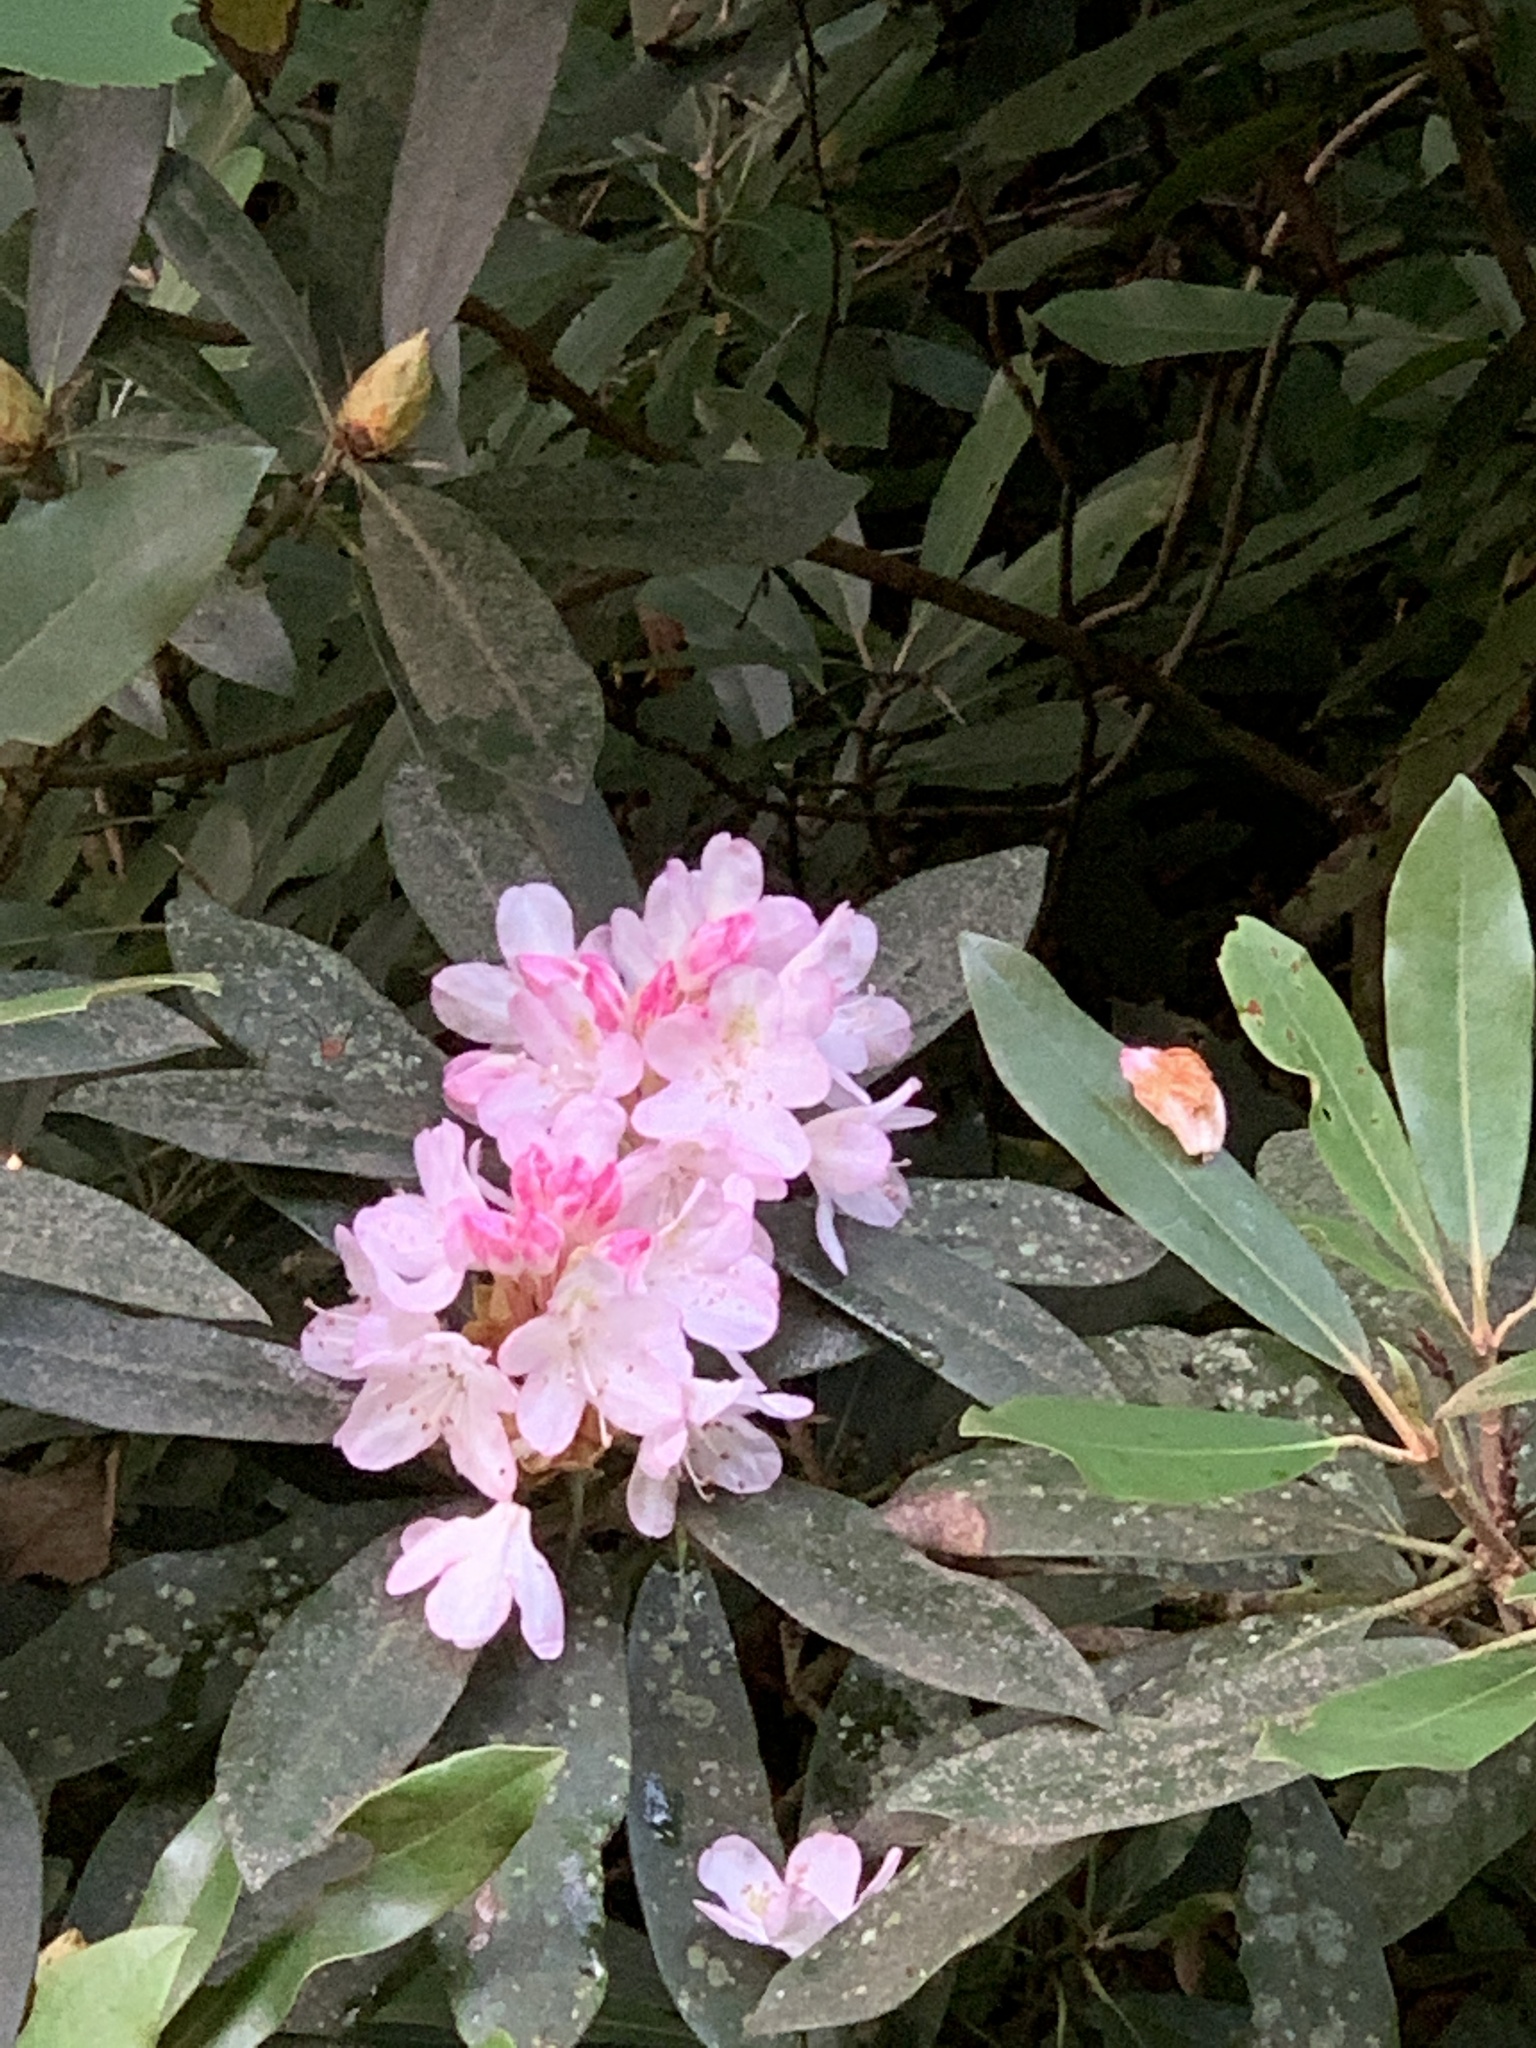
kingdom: Plantae
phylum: Tracheophyta
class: Magnoliopsida
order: Ericales
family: Ericaceae
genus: Rhododendron
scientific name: Rhododendron maximum
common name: Great rhododendron
